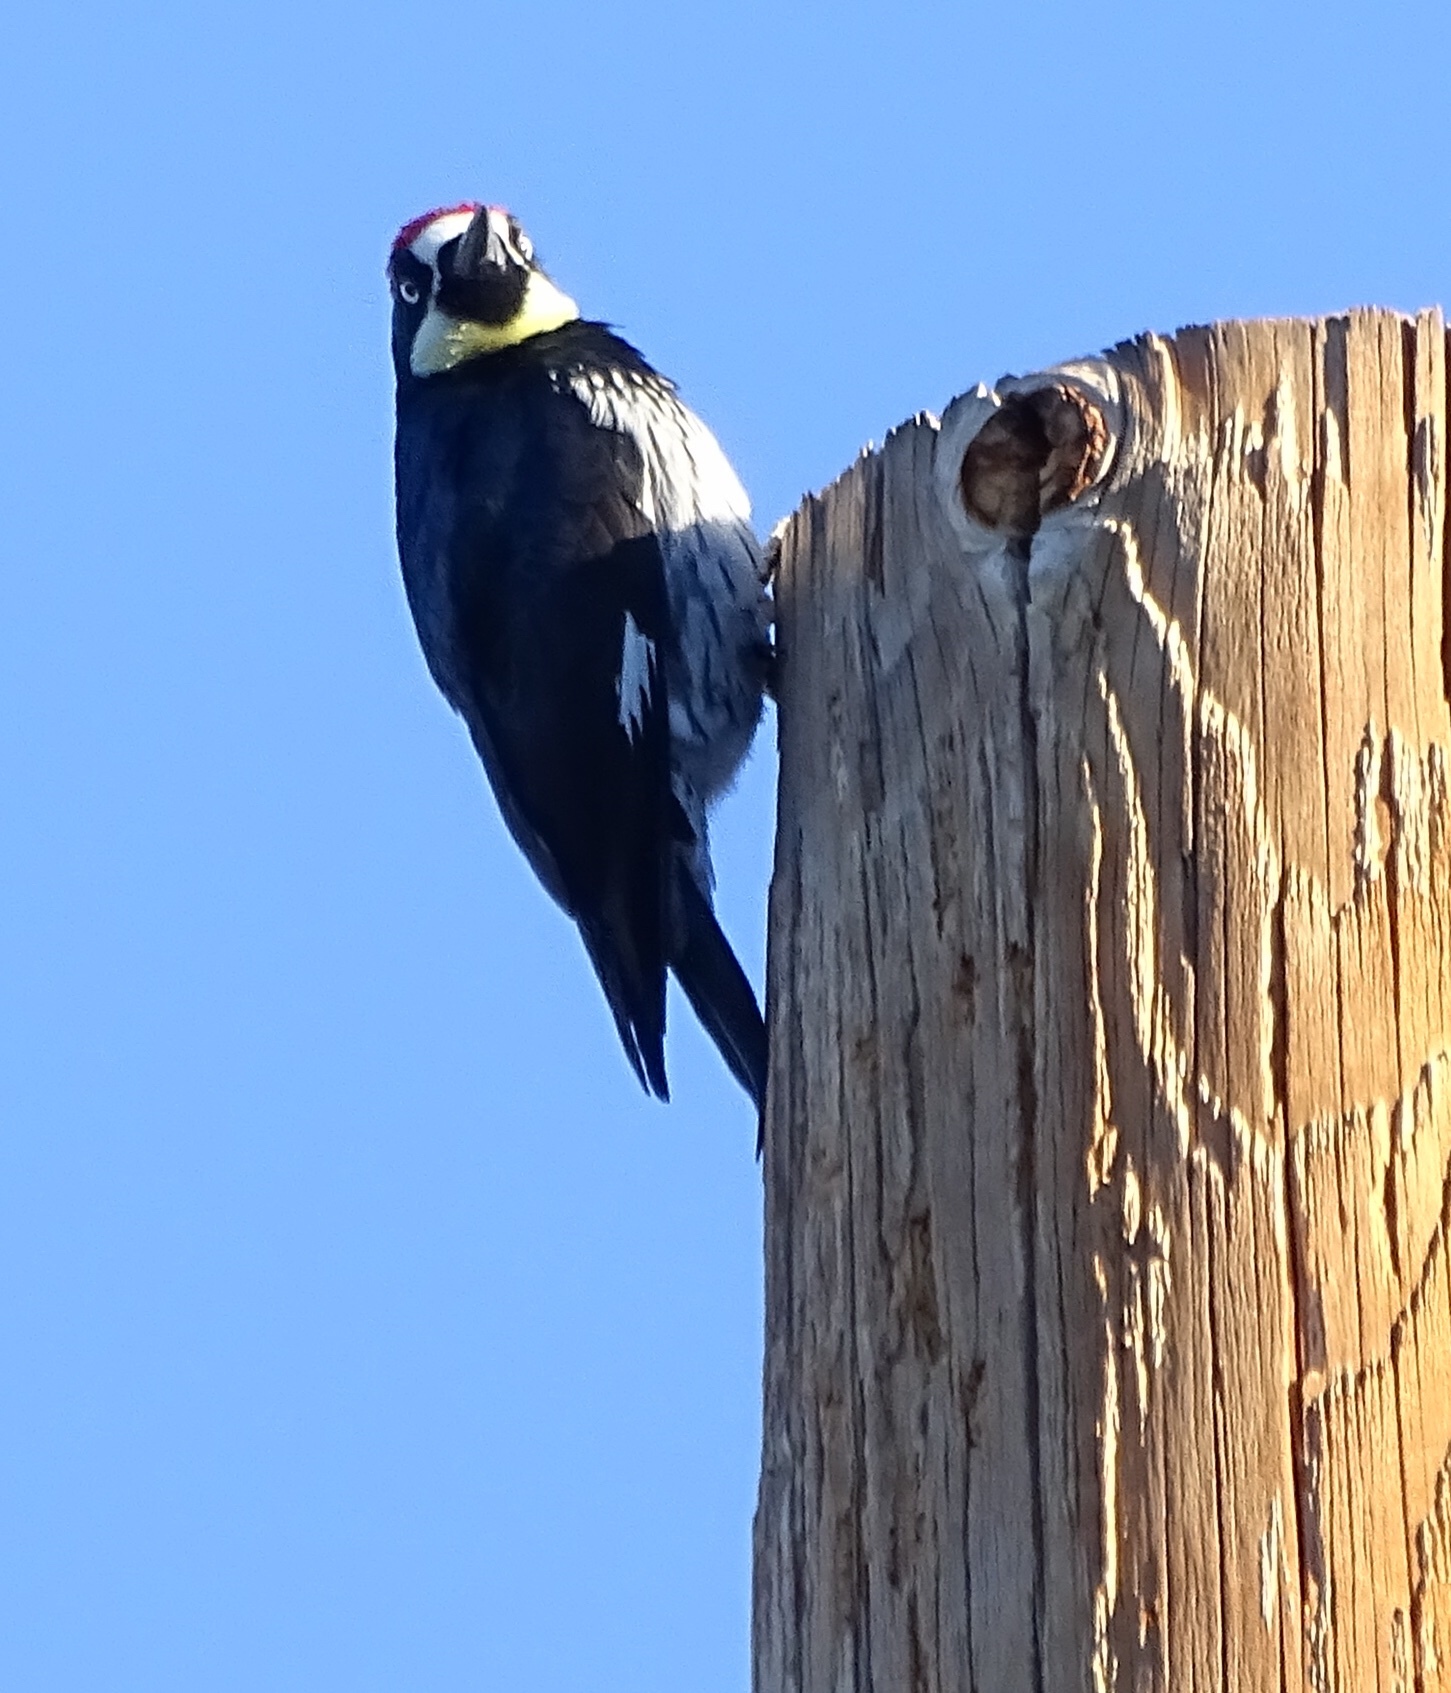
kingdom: Animalia
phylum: Chordata
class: Aves
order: Piciformes
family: Picidae
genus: Melanerpes
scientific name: Melanerpes formicivorus
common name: Acorn woodpecker
